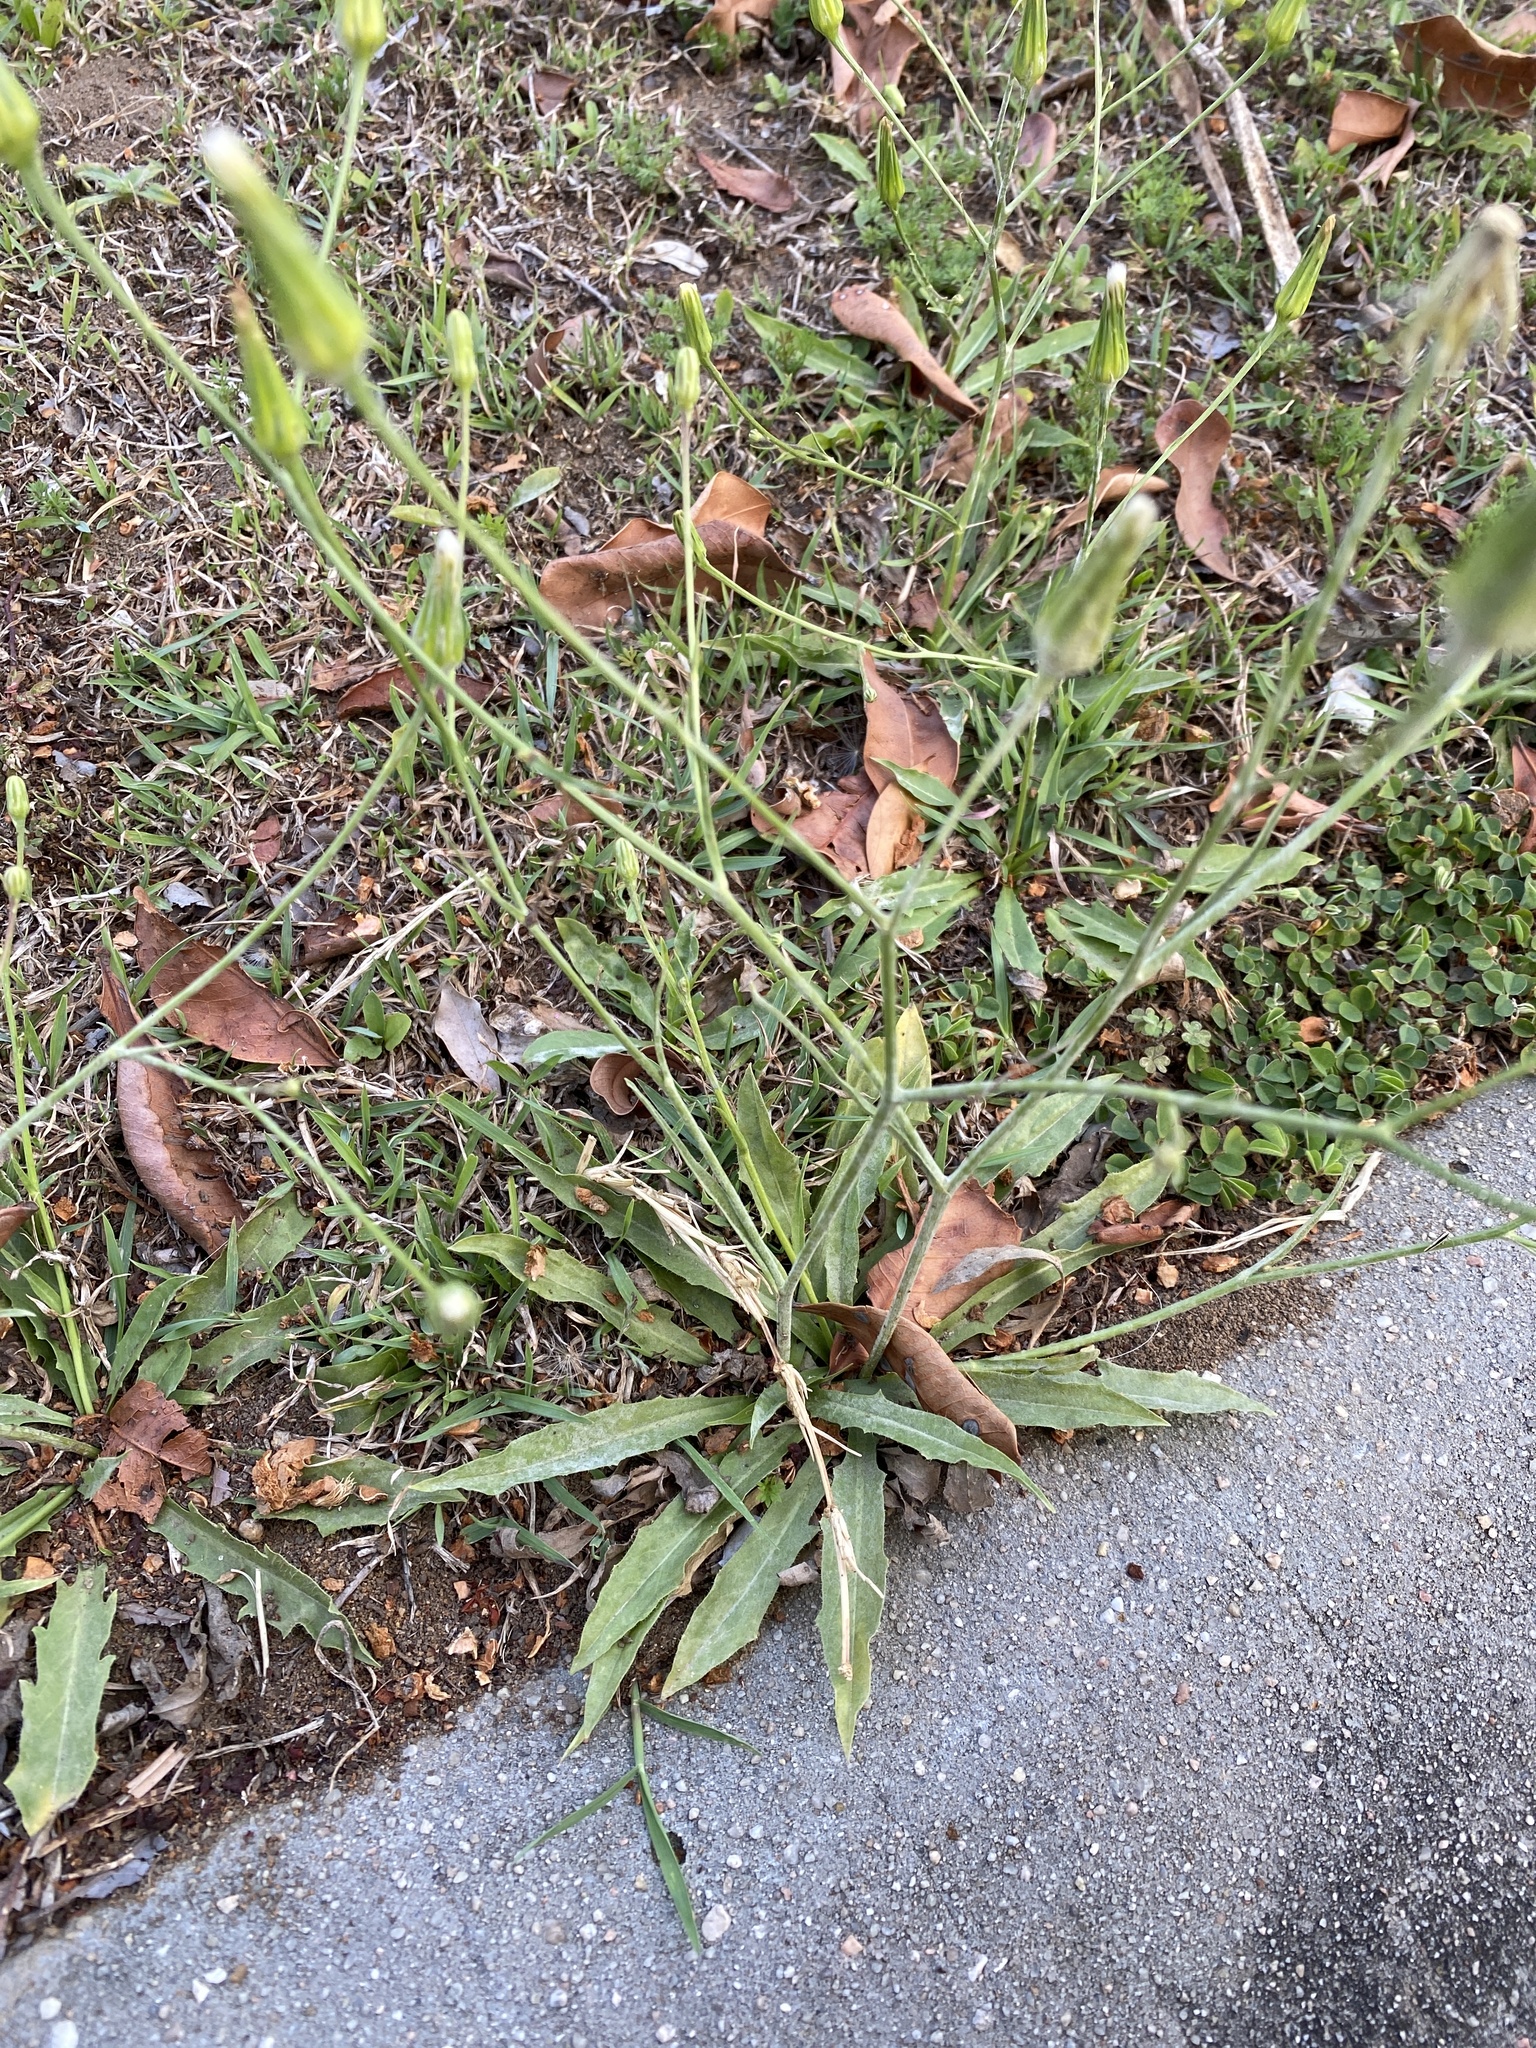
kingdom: Plantae
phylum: Tracheophyta
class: Magnoliopsida
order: Asterales
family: Asteraceae
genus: Hypochaeris
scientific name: Hypochaeris albiflora
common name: White flatweed
